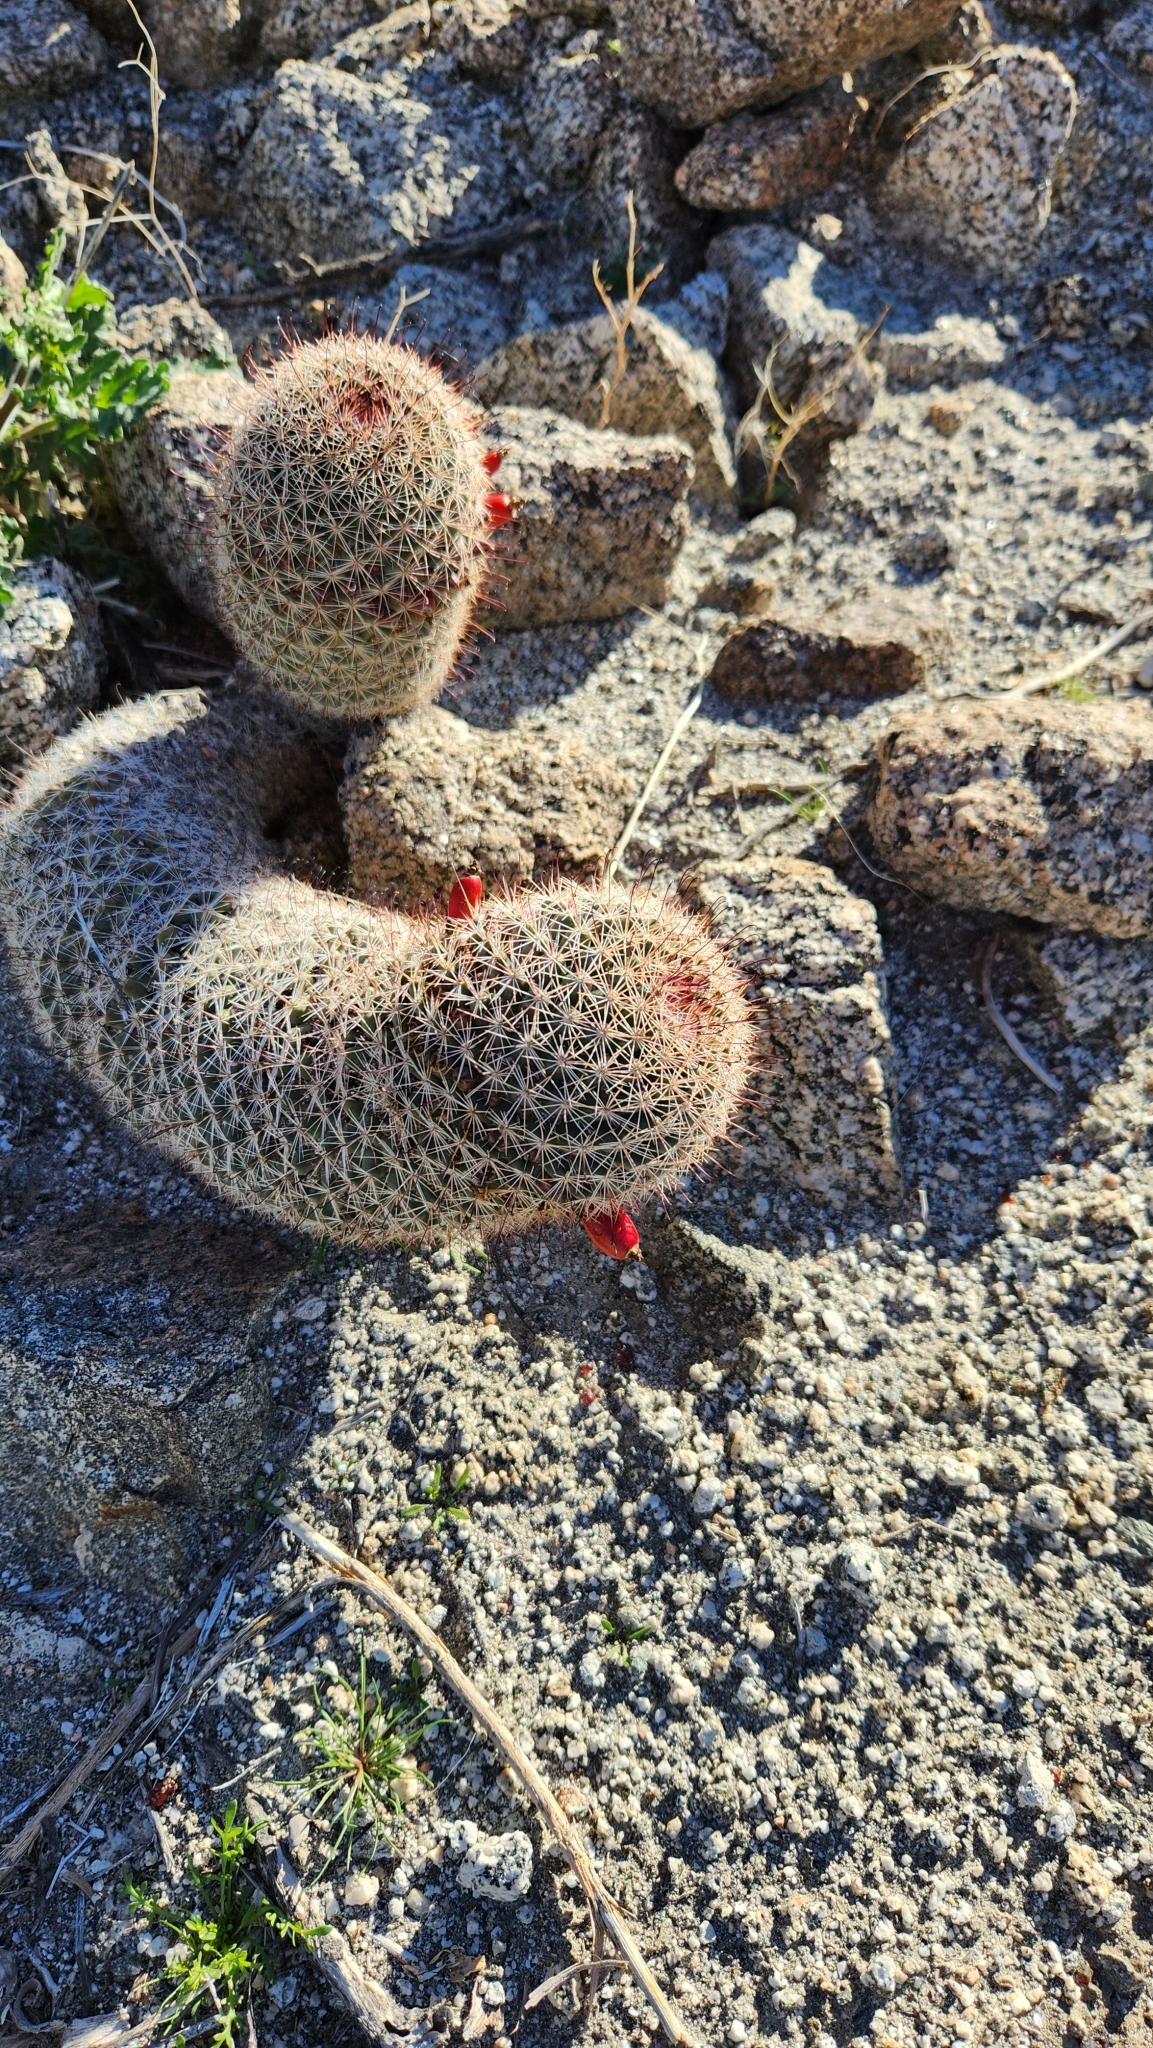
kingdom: Plantae
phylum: Tracheophyta
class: Magnoliopsida
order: Caryophyllales
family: Cactaceae
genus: Cochemiea
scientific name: Cochemiea dioica
